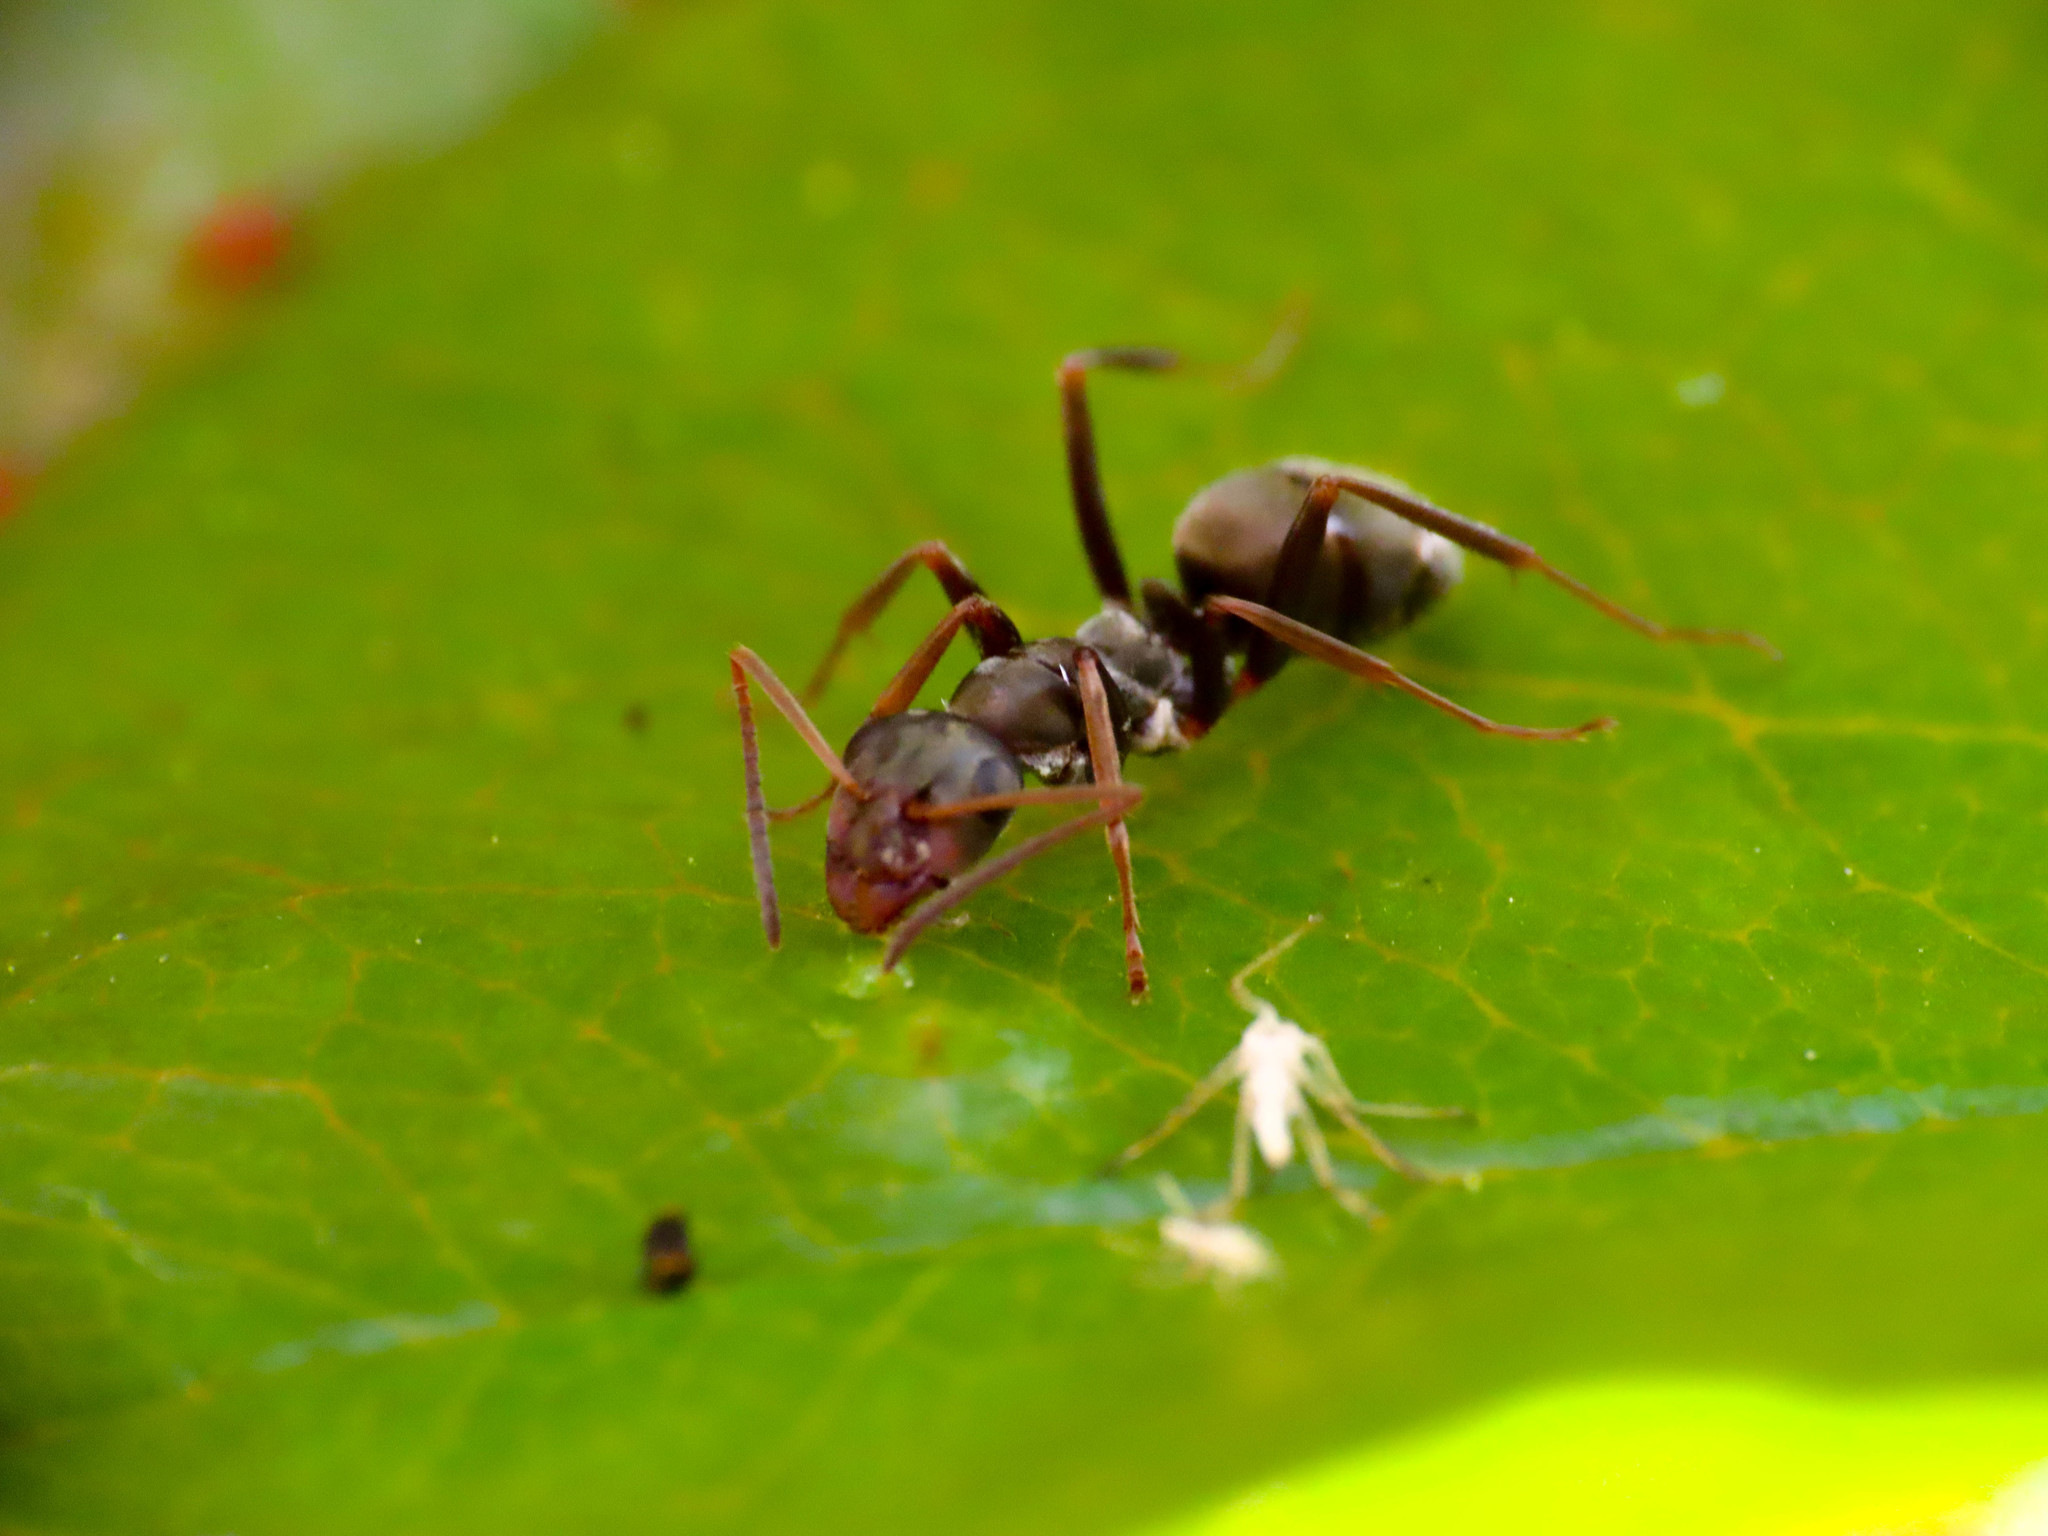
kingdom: Animalia
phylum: Arthropoda
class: Insecta
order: Hymenoptera
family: Formicidae
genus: Formica
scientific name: Formica cunicularia
